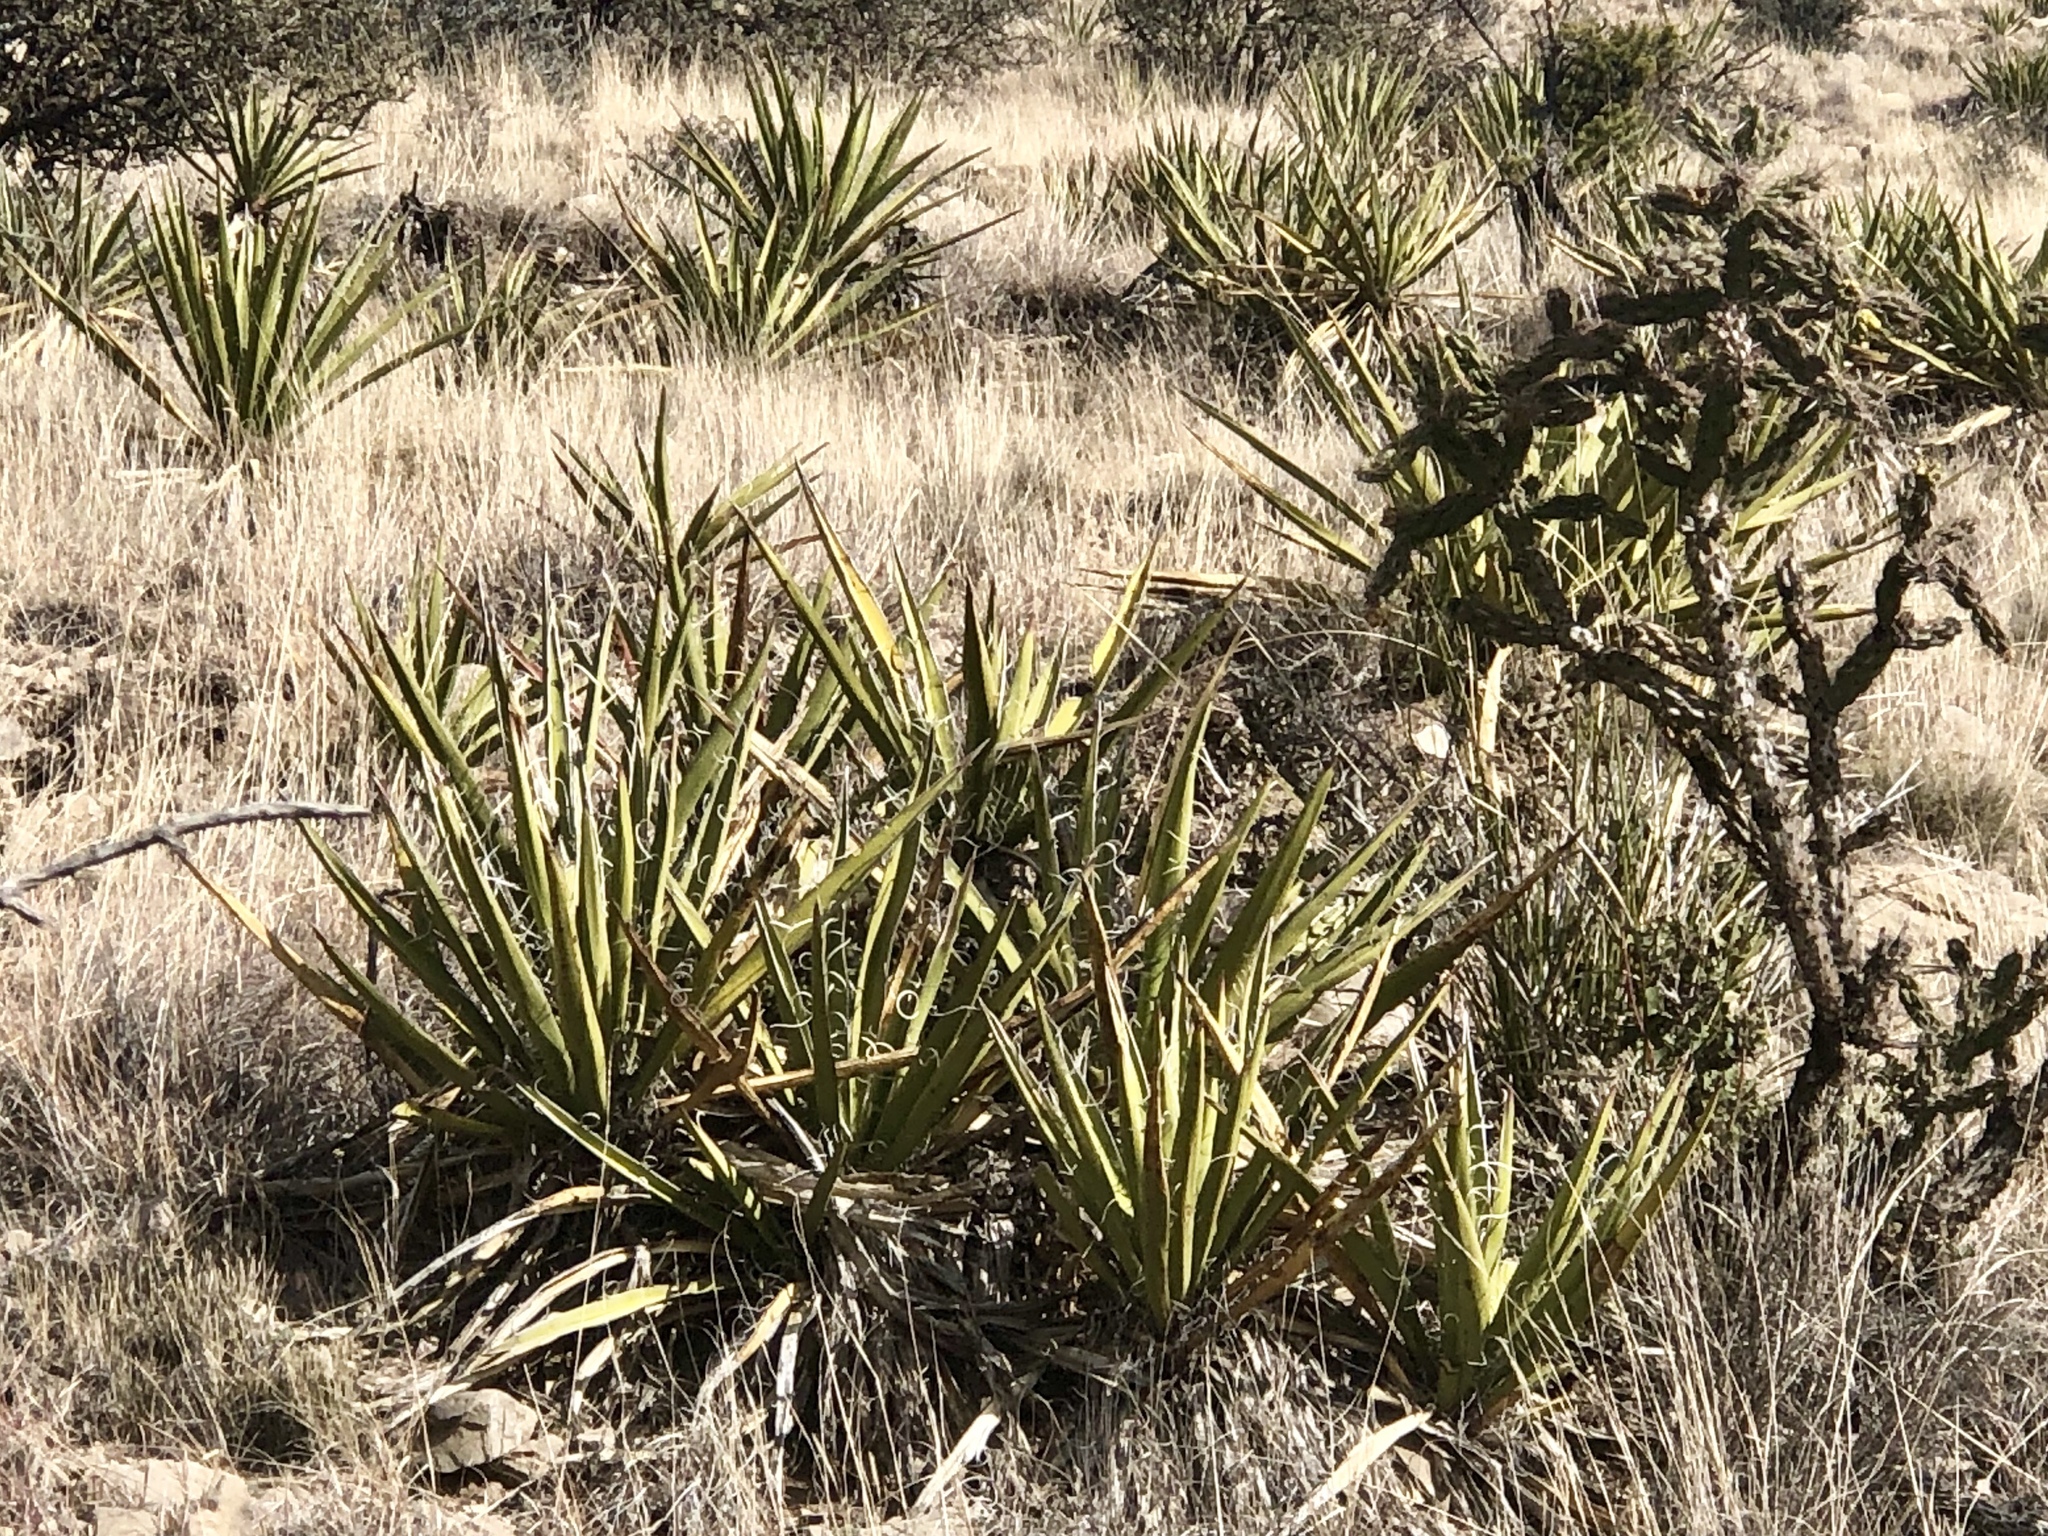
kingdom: Plantae
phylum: Tracheophyta
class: Liliopsida
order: Asparagales
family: Asparagaceae
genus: Yucca
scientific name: Yucca baccata
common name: Banana yucca
